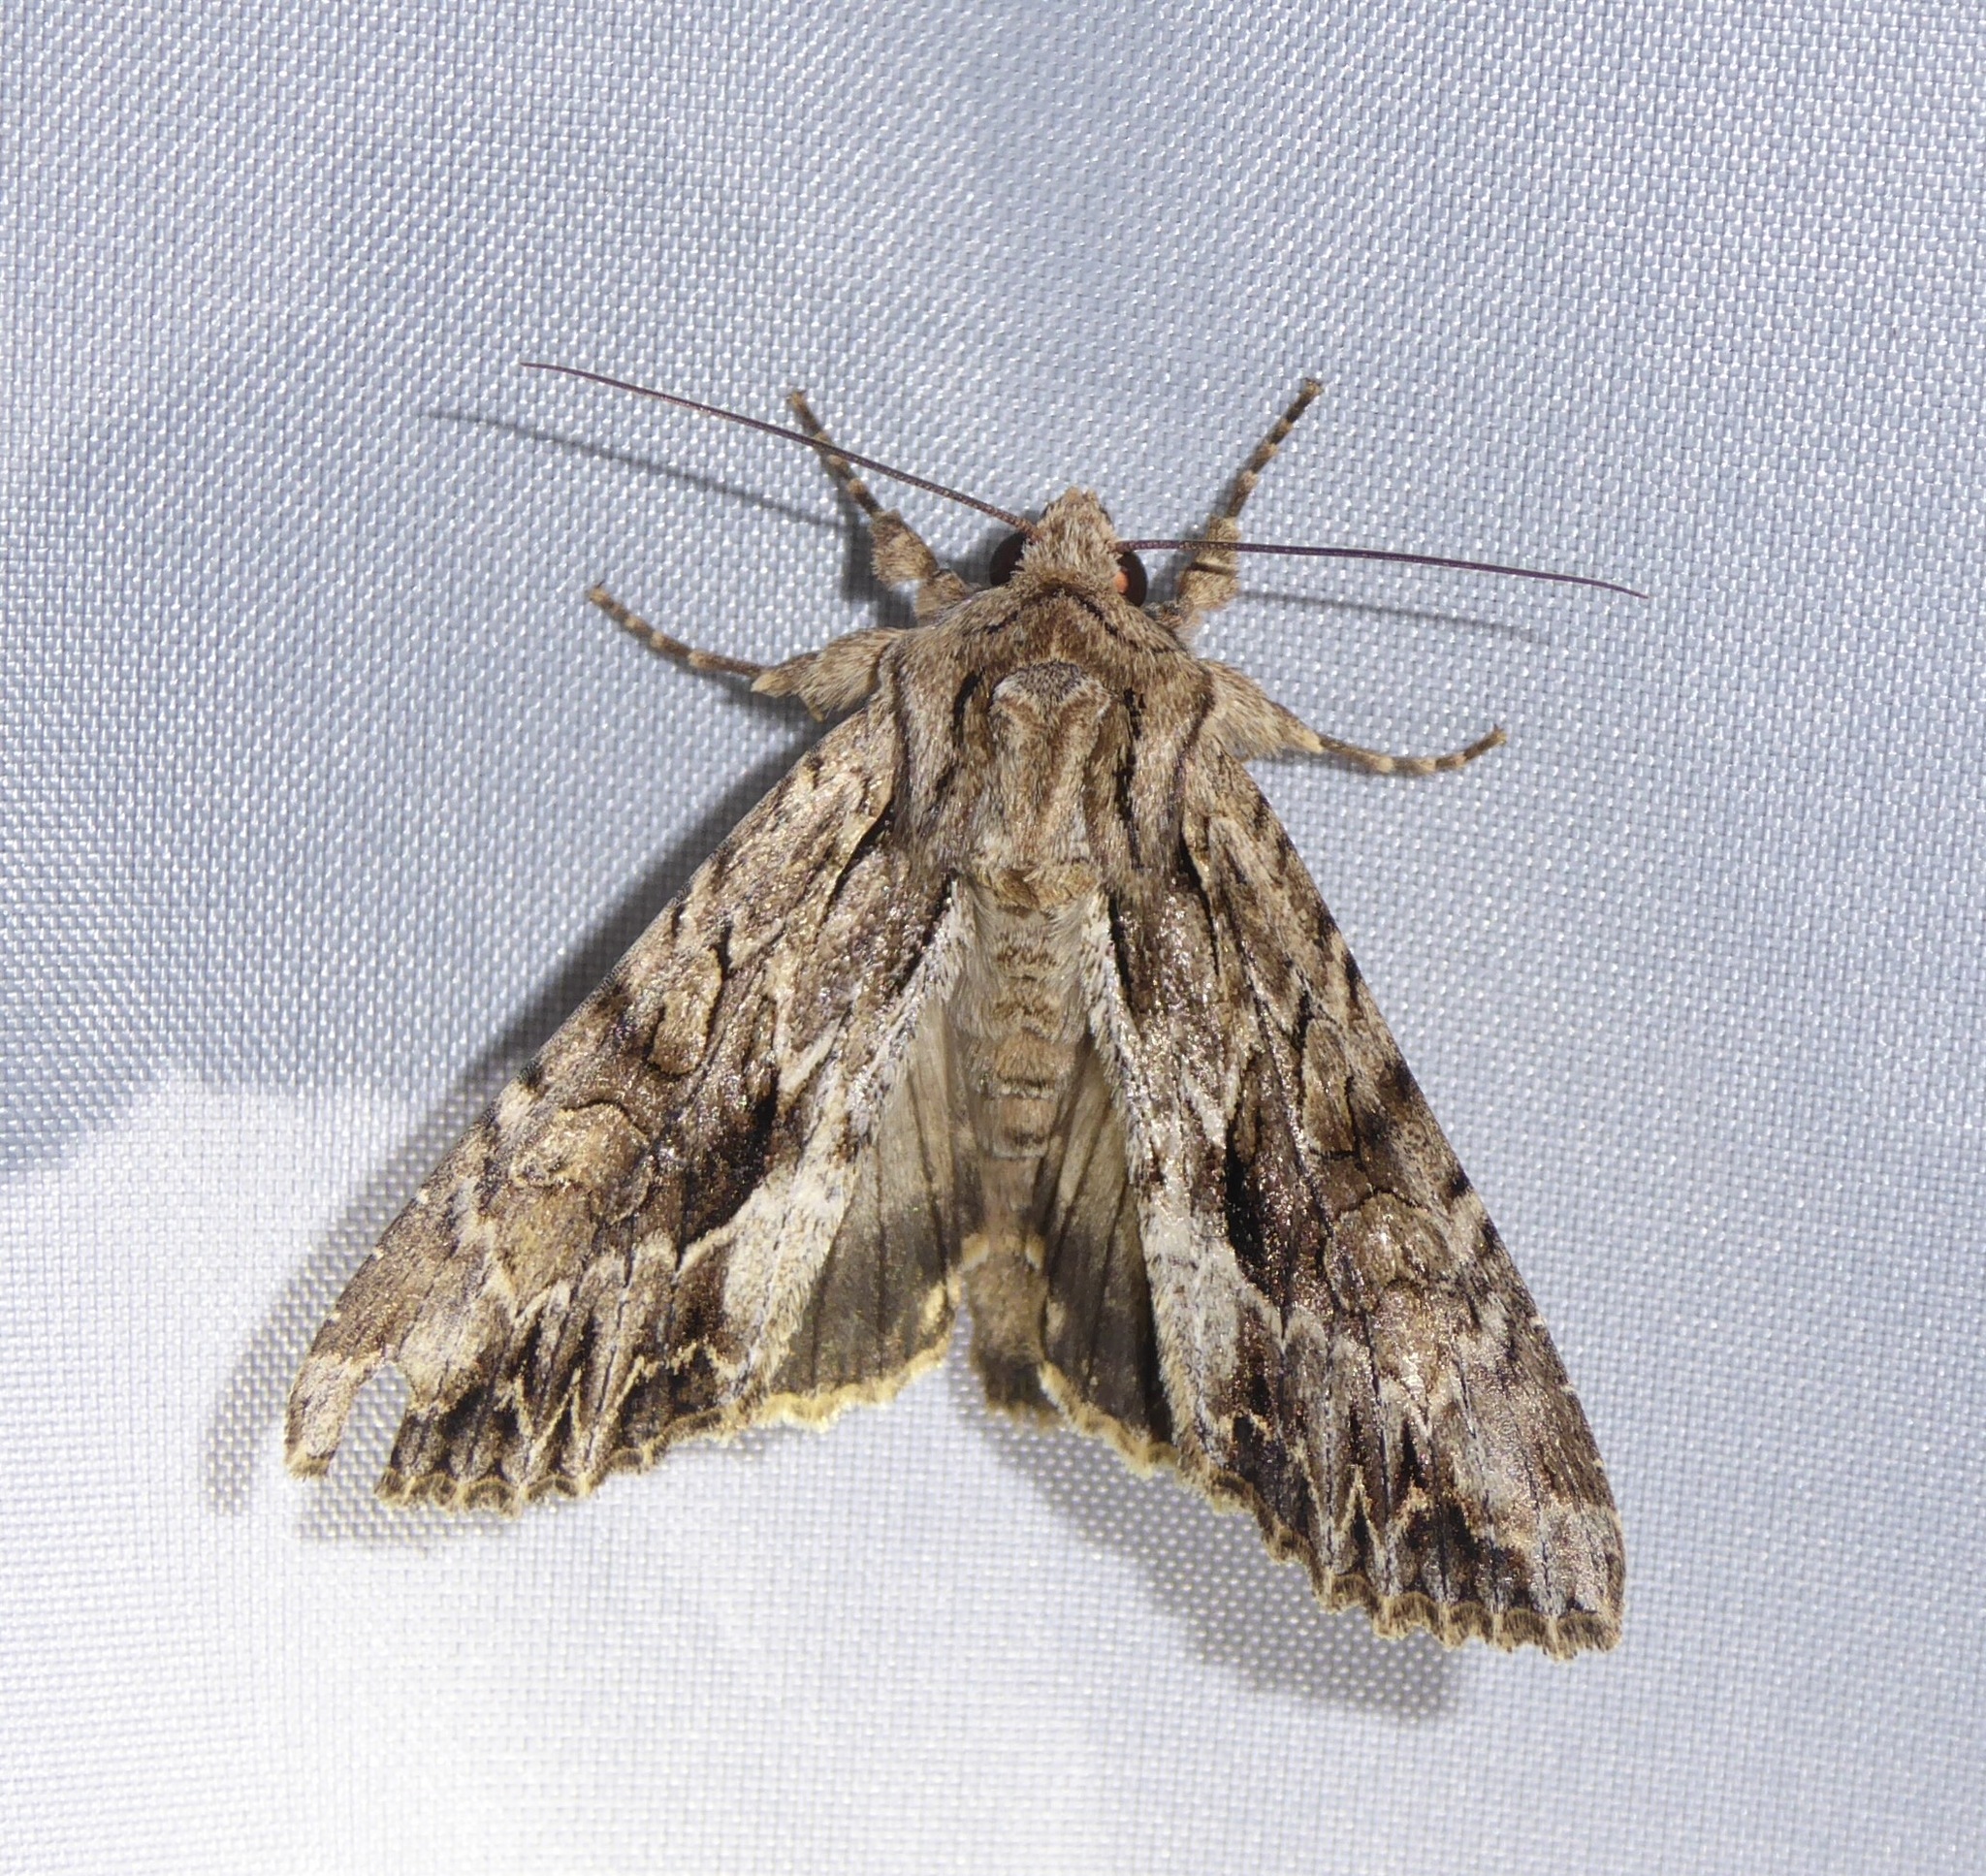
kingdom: Animalia
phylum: Arthropoda
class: Insecta
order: Lepidoptera
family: Noctuidae
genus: Apamea
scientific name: Apamea monoglypha
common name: Dark arches
